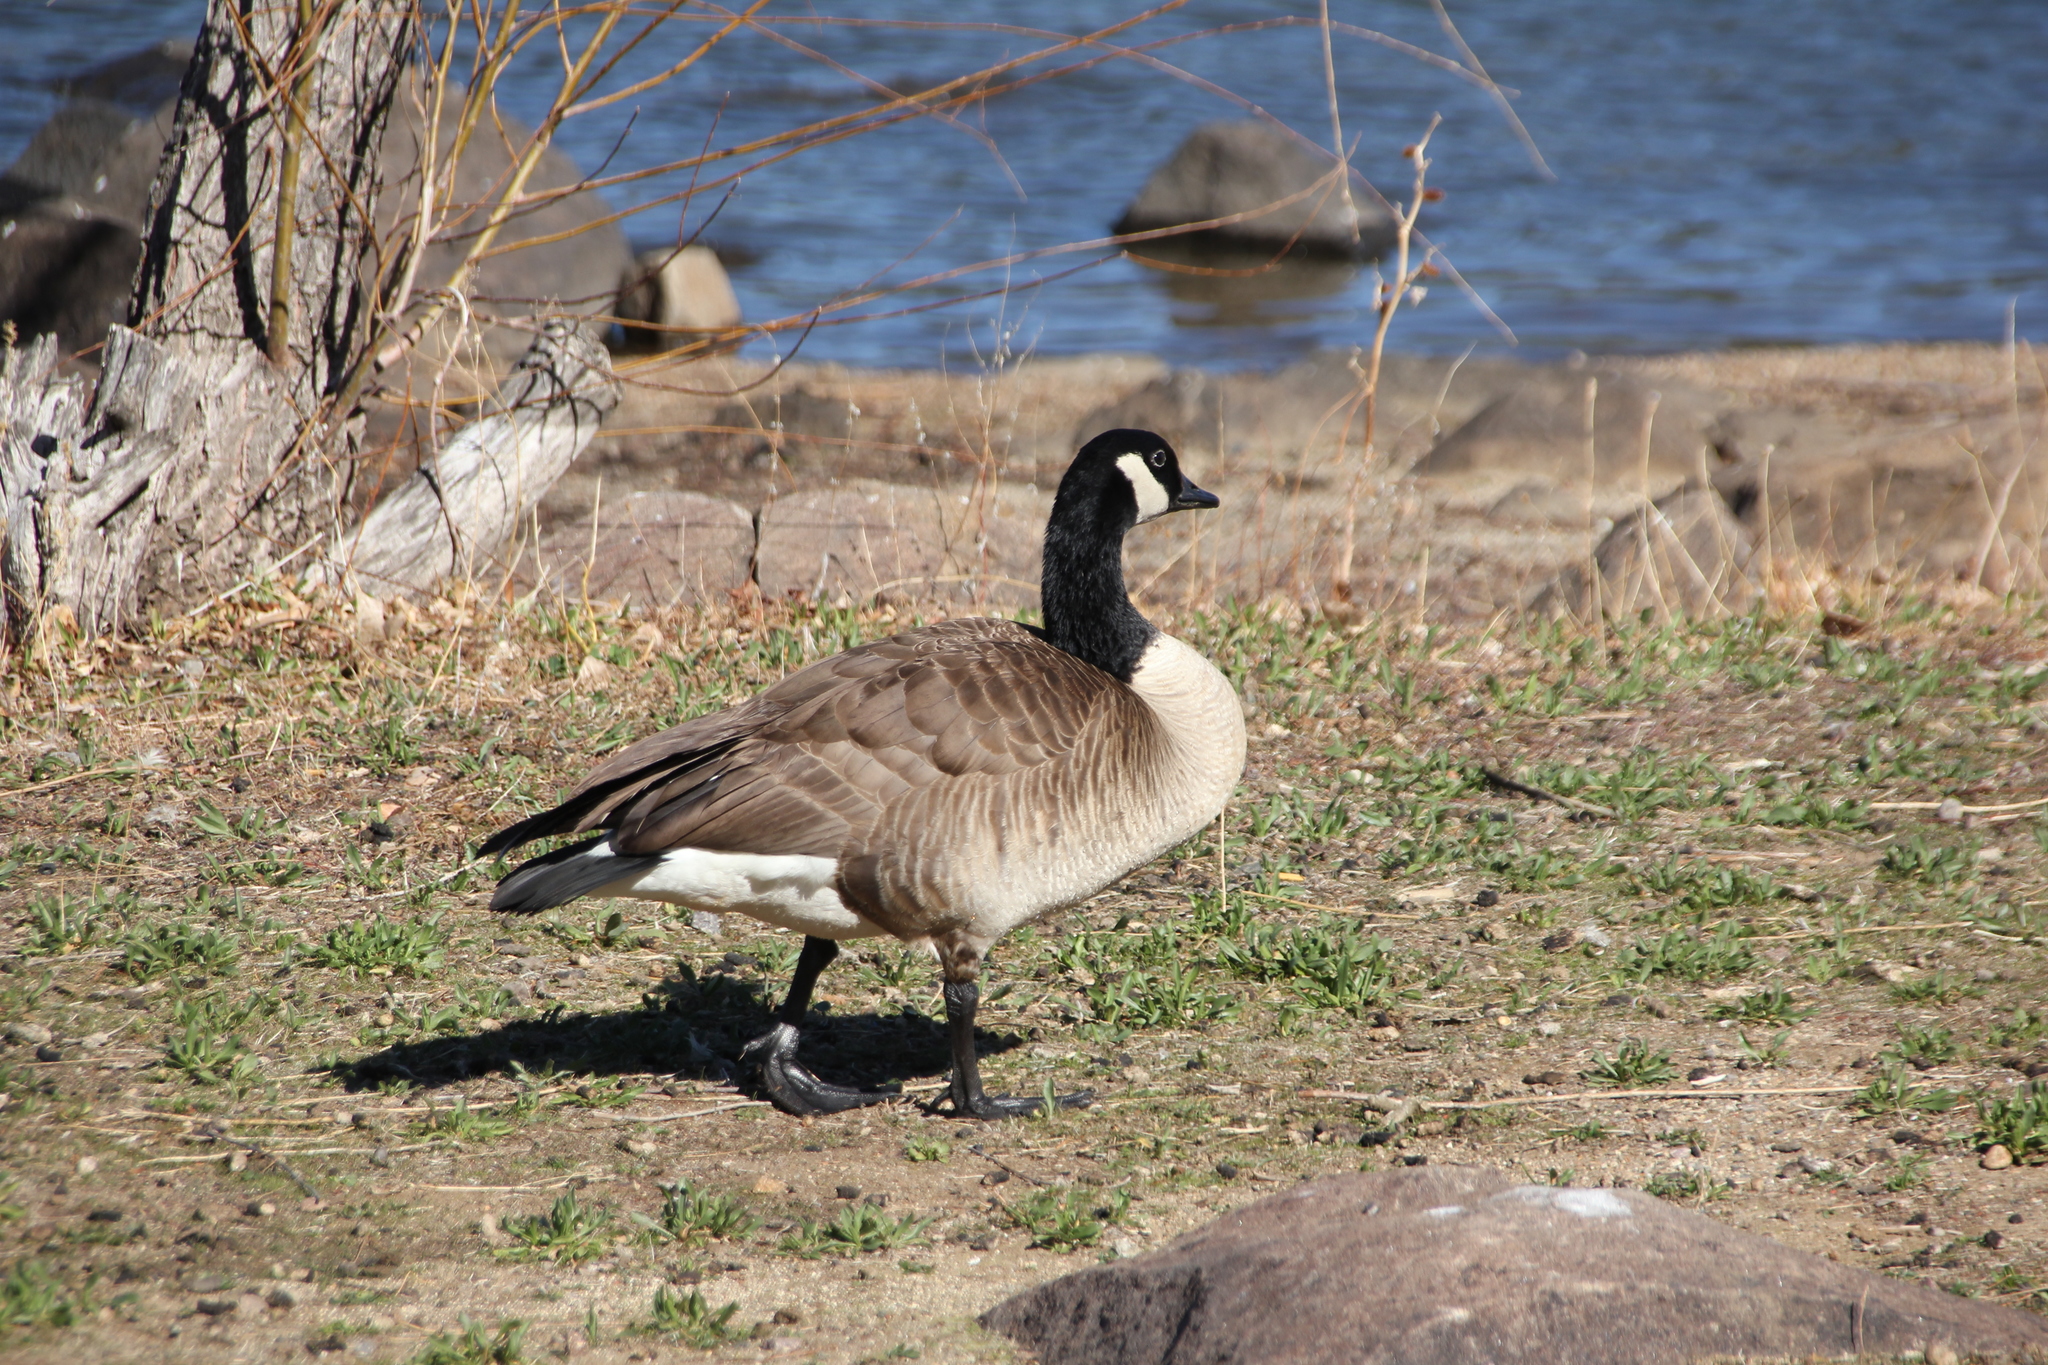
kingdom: Animalia
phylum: Chordata
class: Aves
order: Anseriformes
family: Anatidae
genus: Branta
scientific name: Branta canadensis
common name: Canada goose
